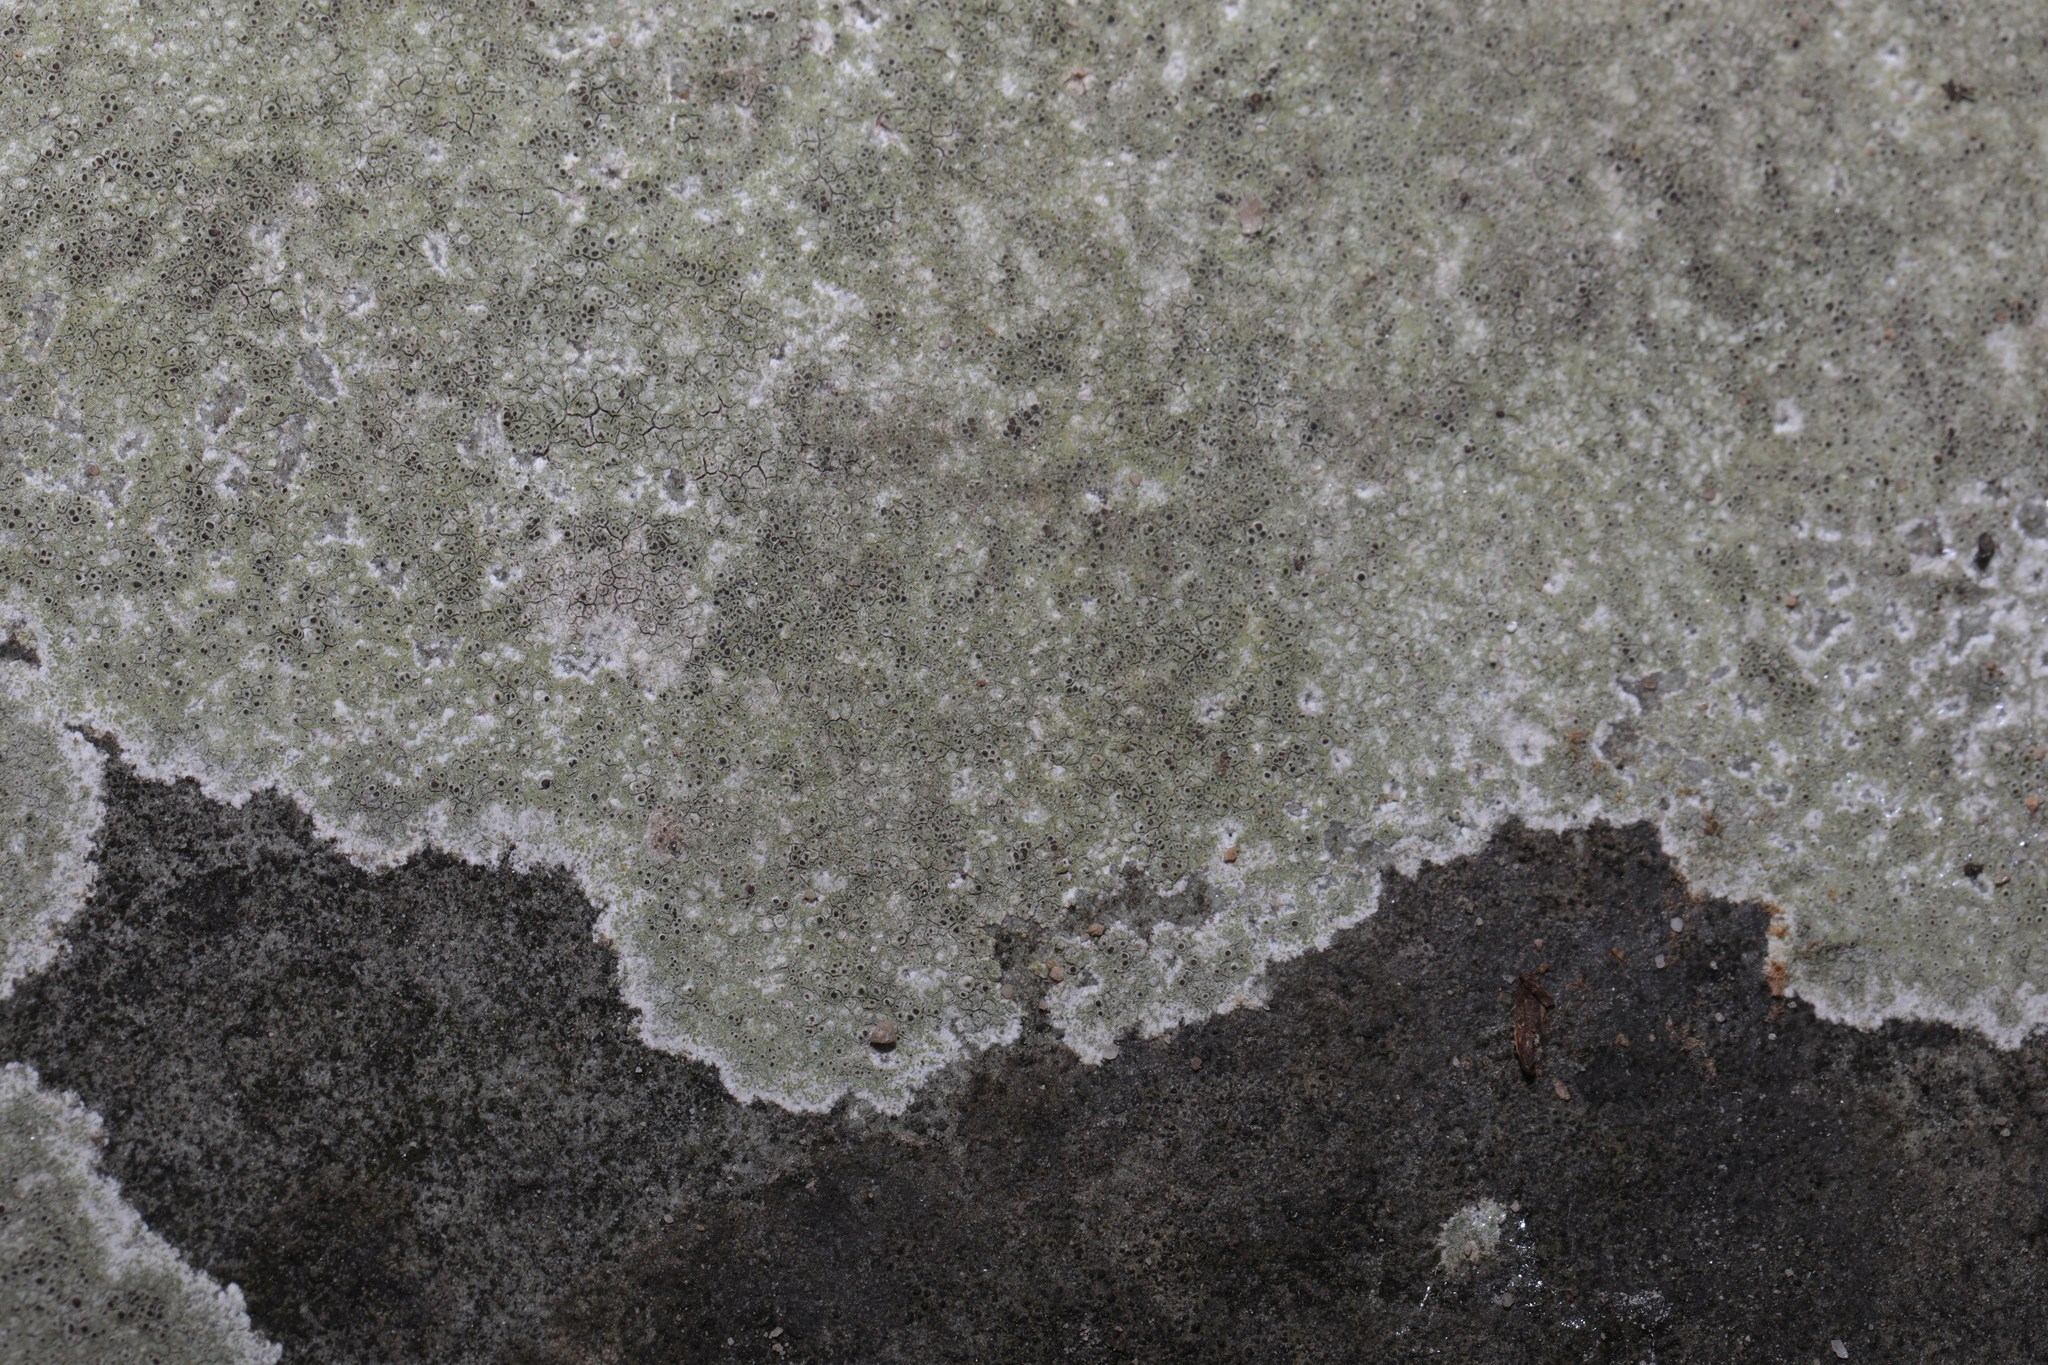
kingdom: Fungi
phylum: Ascomycota
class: Lecanoromycetes
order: Lecanorales
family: Lecanoraceae
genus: Lecanora
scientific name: Lecanora campestris
